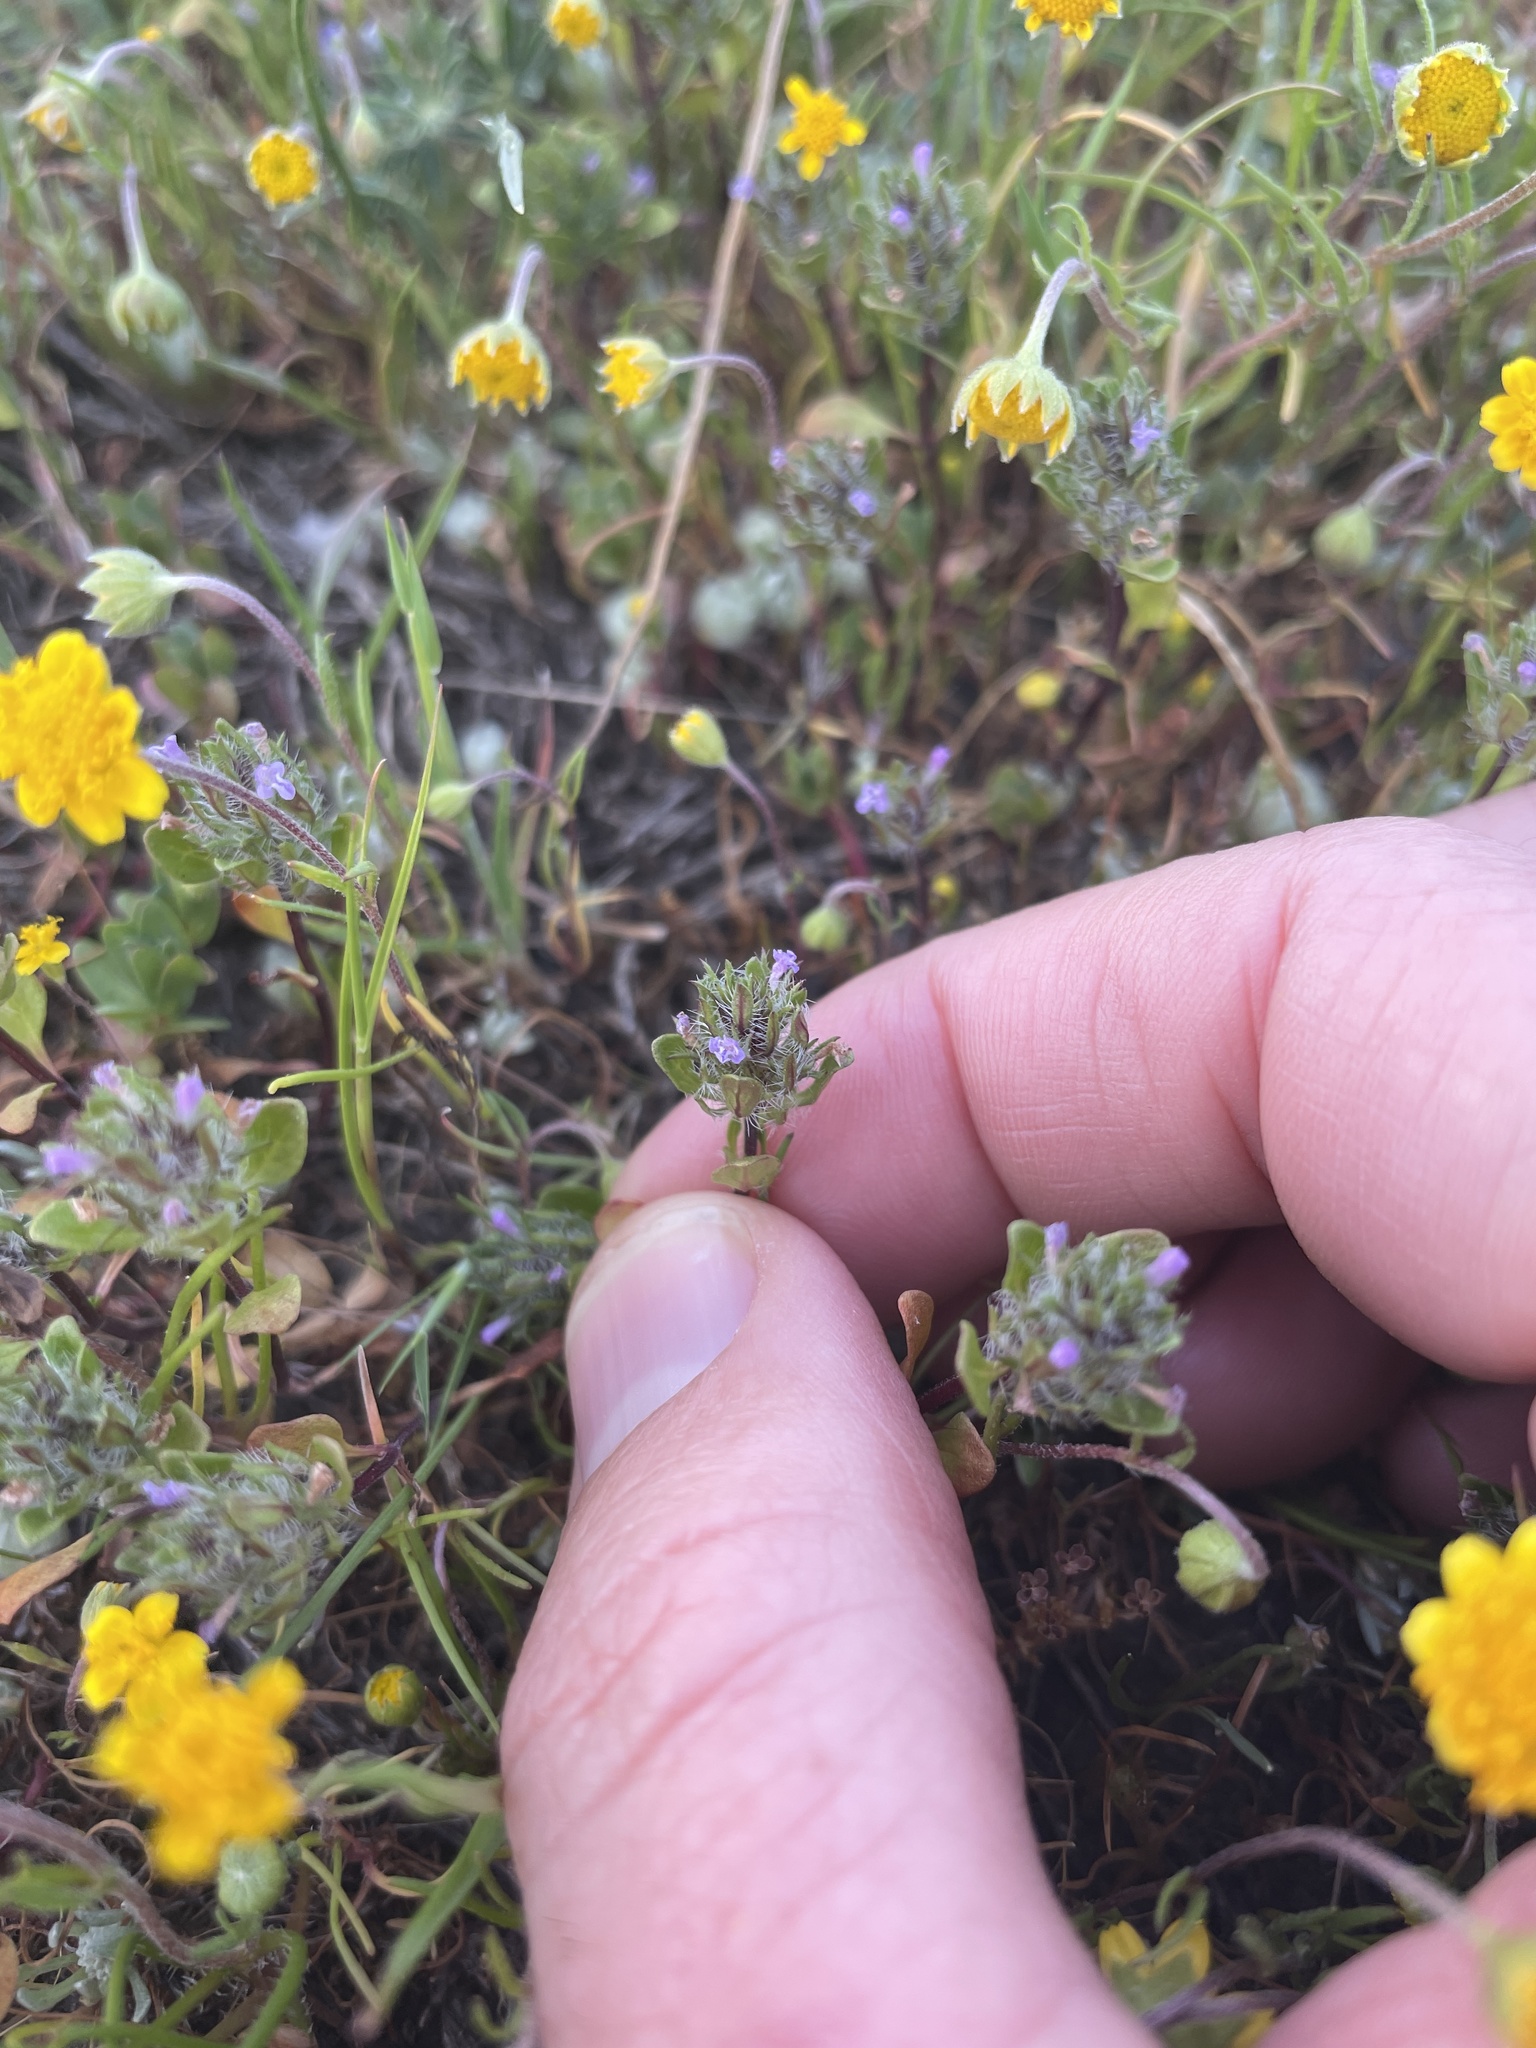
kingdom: Plantae
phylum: Tracheophyta
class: Magnoliopsida
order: Lamiales
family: Lamiaceae
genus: Pogogyne
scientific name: Pogogyne zizyphoroides
